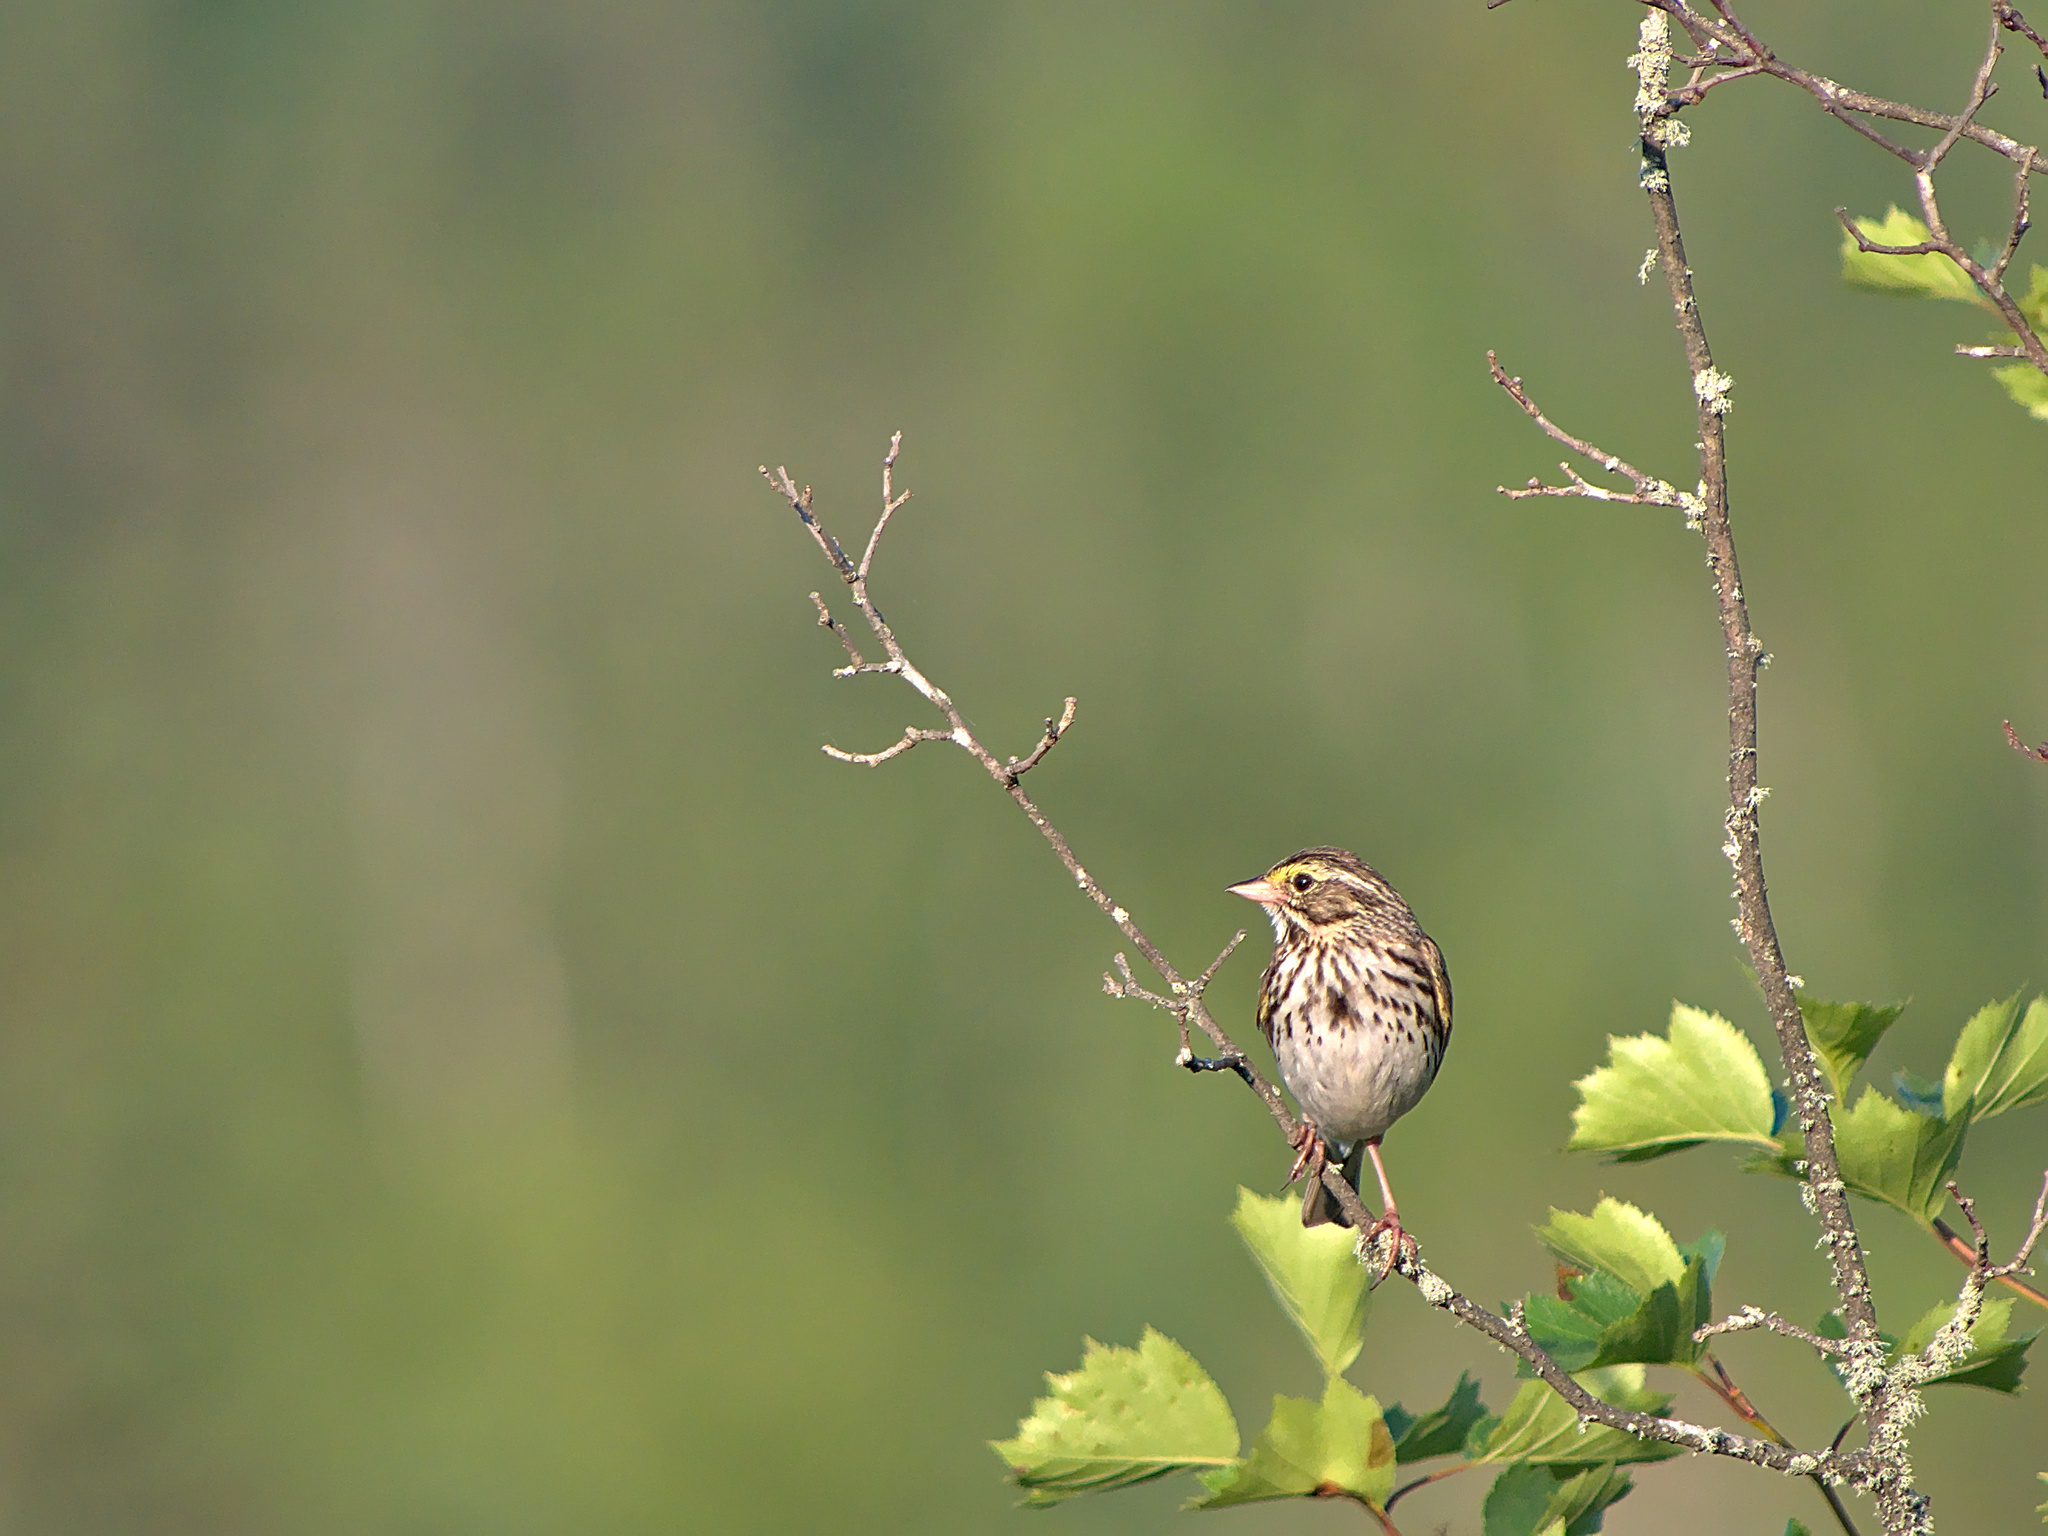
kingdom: Animalia
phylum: Chordata
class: Aves
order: Passeriformes
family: Passerellidae
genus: Passerculus
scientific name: Passerculus sandwichensis
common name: Savannah sparrow
